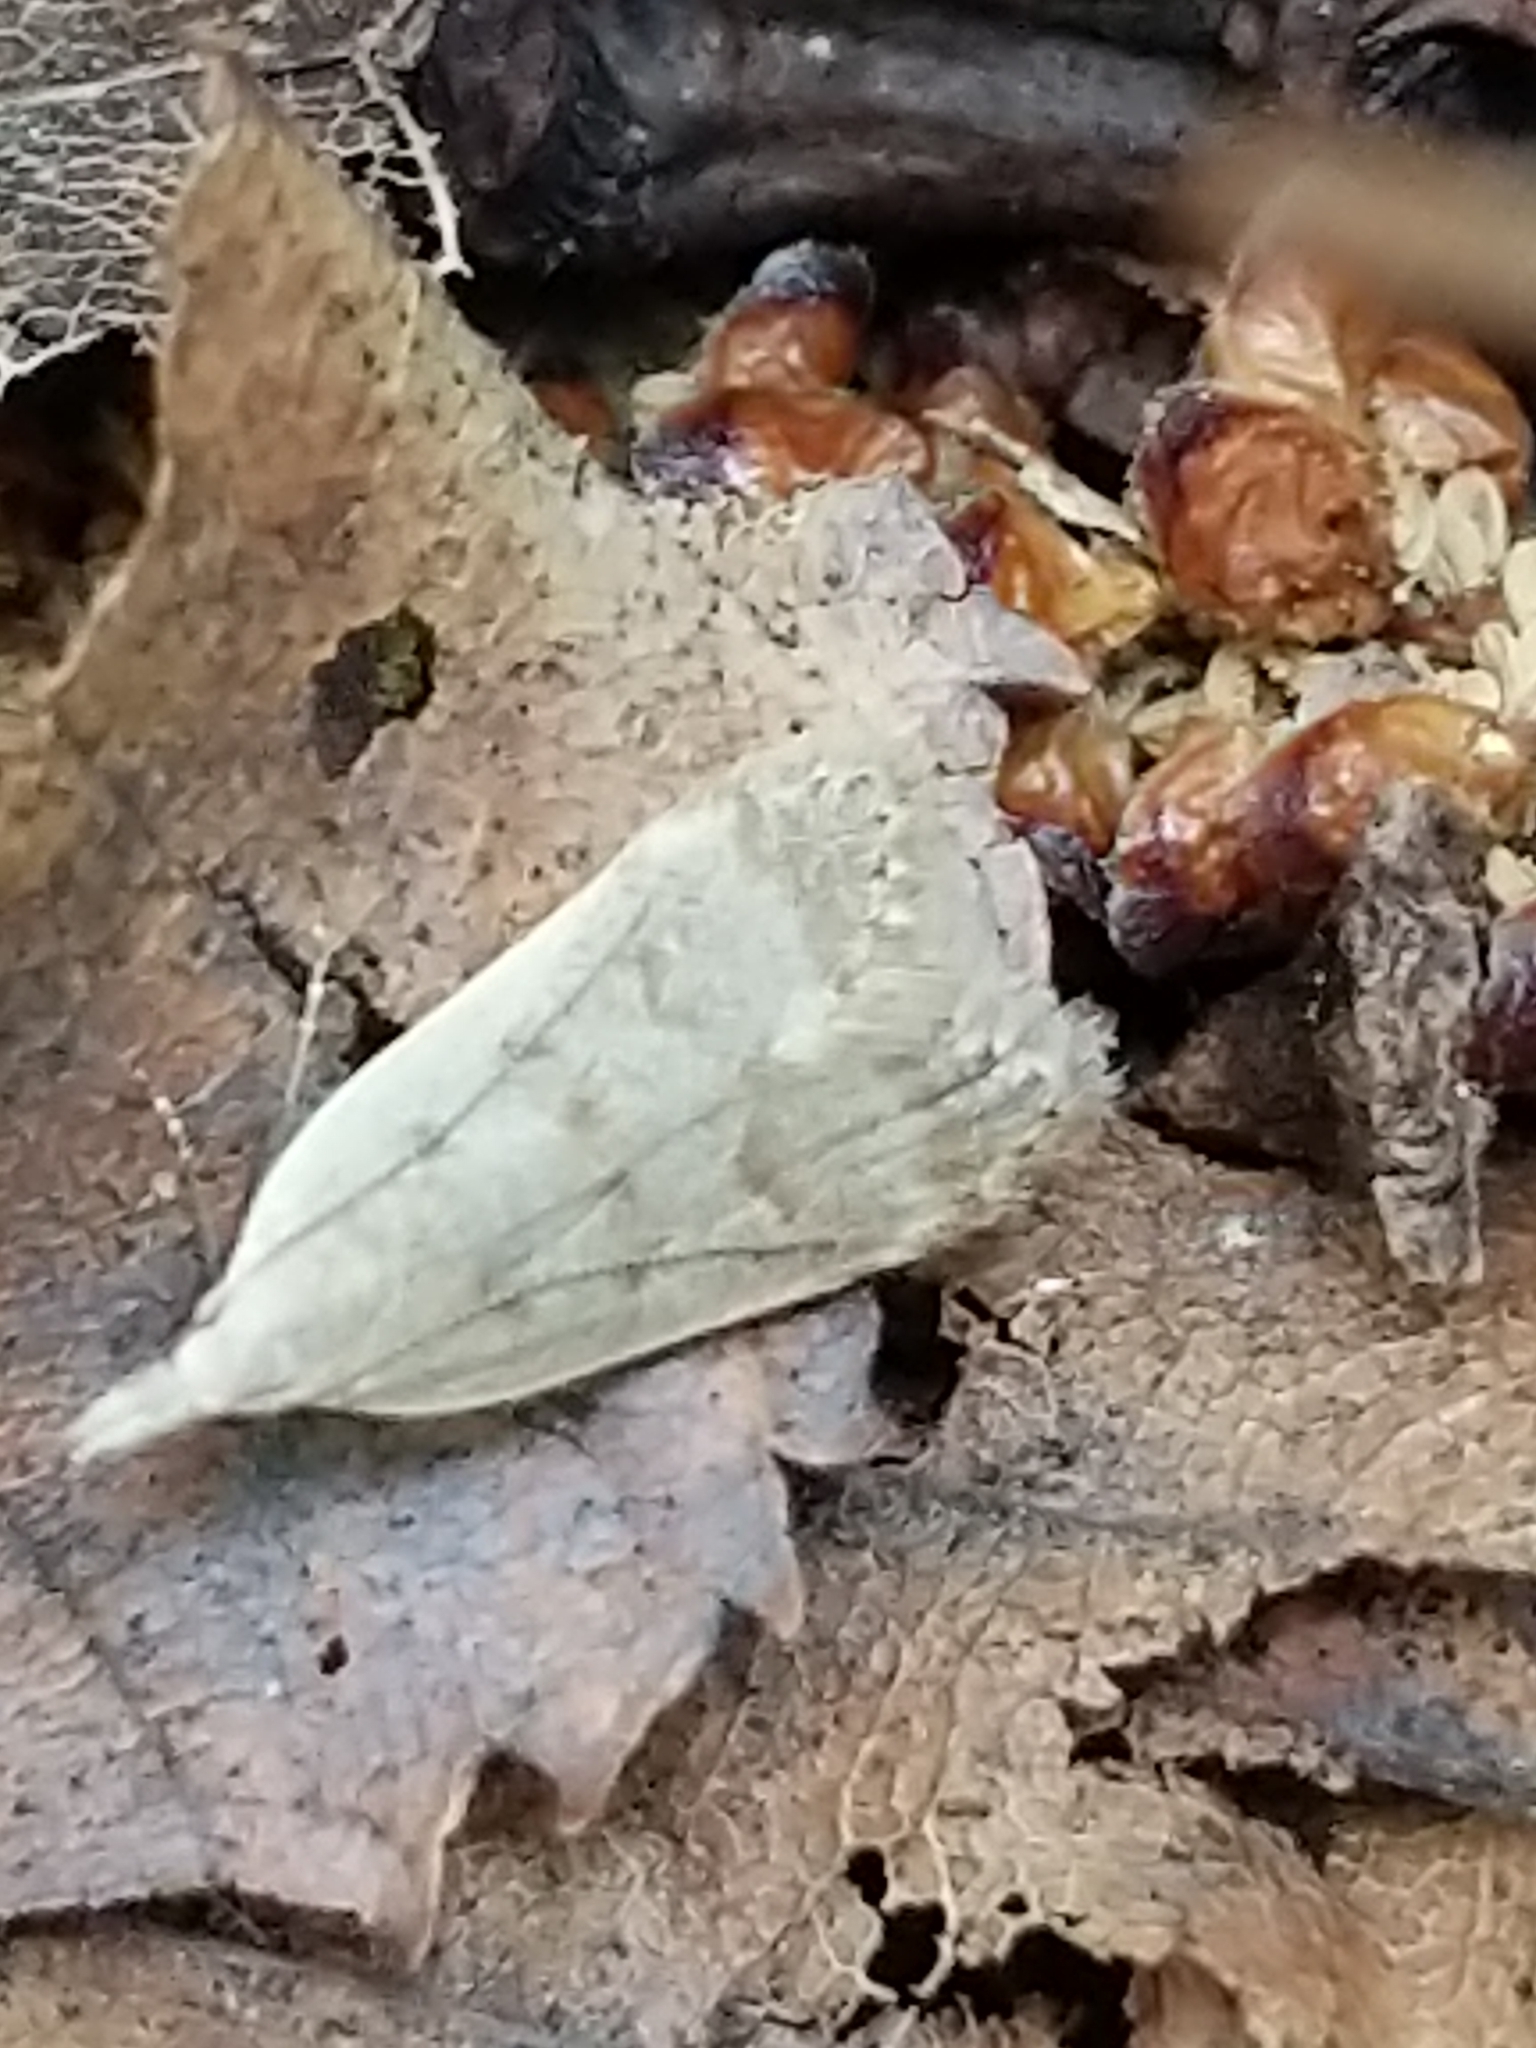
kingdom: Animalia
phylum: Arthropoda
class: Insecta
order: Lepidoptera
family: Gelechiidae
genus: Dichomeris
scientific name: Dichomeris punctidiscellus
